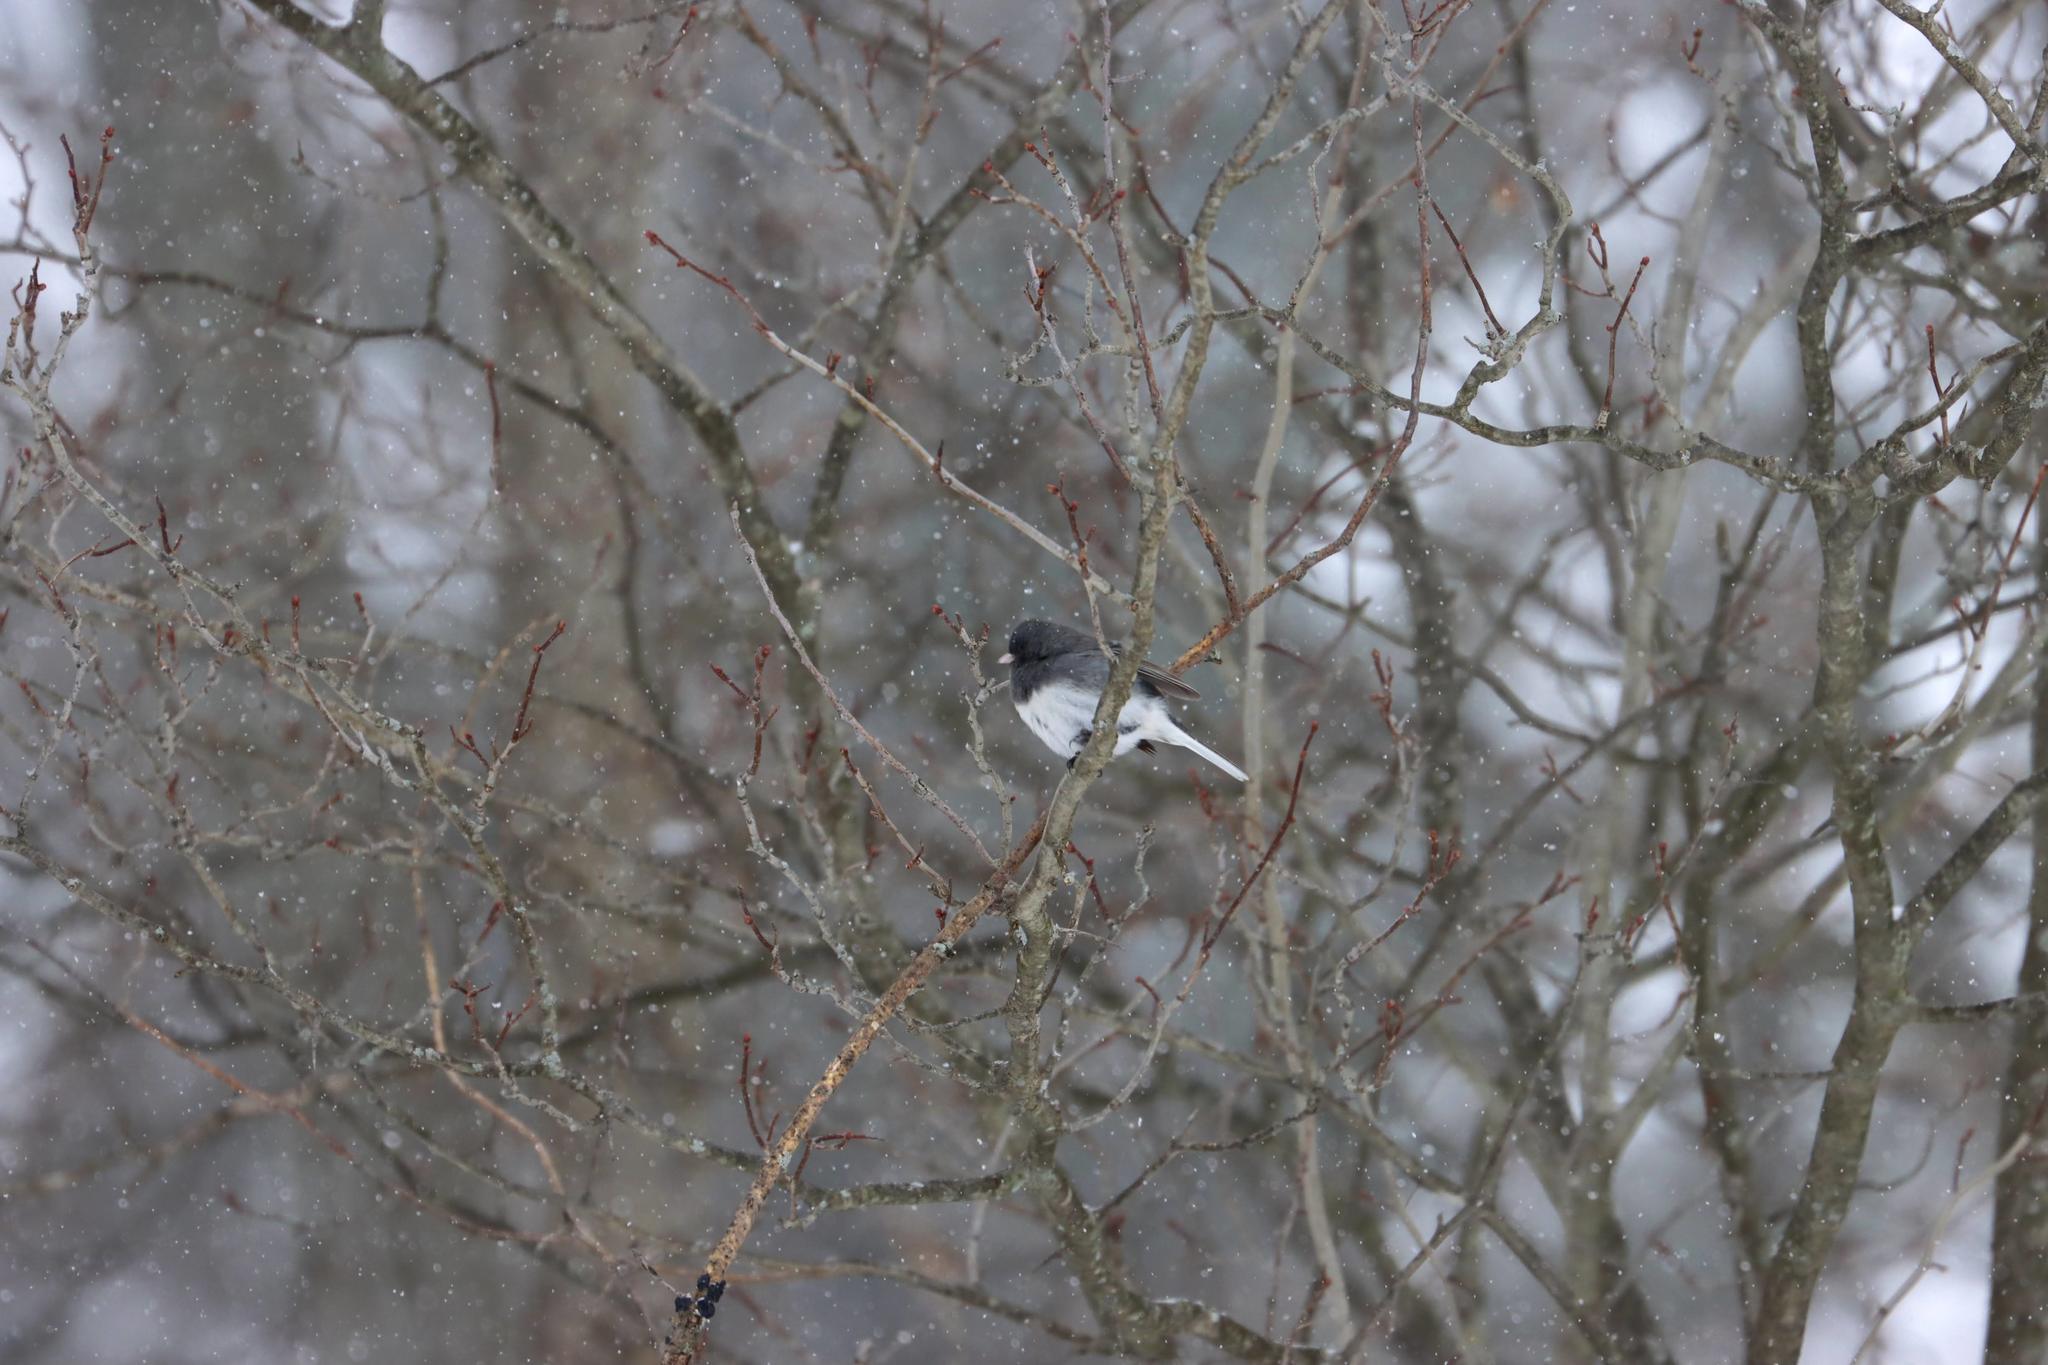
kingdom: Animalia
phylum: Chordata
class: Aves
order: Passeriformes
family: Passerellidae
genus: Junco
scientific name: Junco hyemalis
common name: Dark-eyed junco
